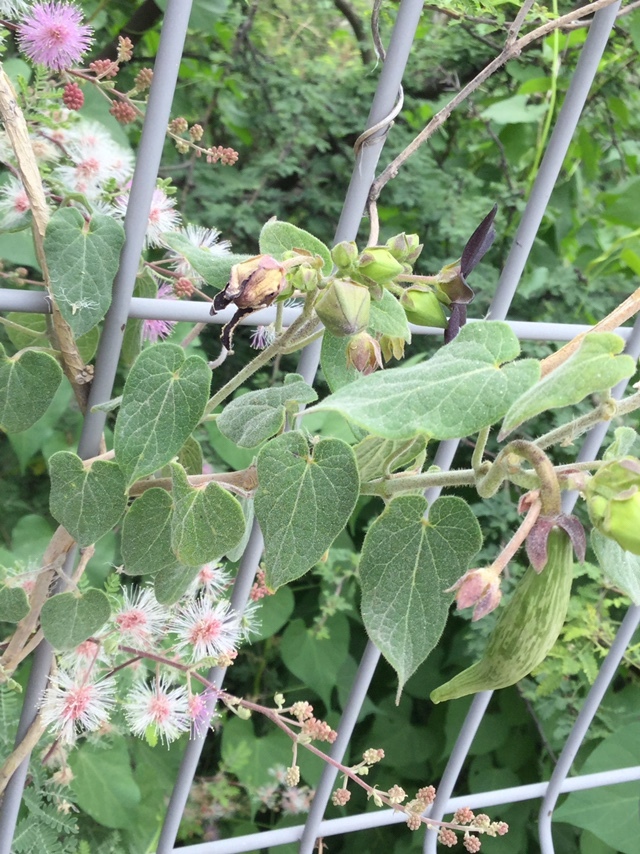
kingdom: Plantae
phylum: Tracheophyta
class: Magnoliopsida
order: Gentianales
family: Apocynaceae
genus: Matelea
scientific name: Matelea pilosa
